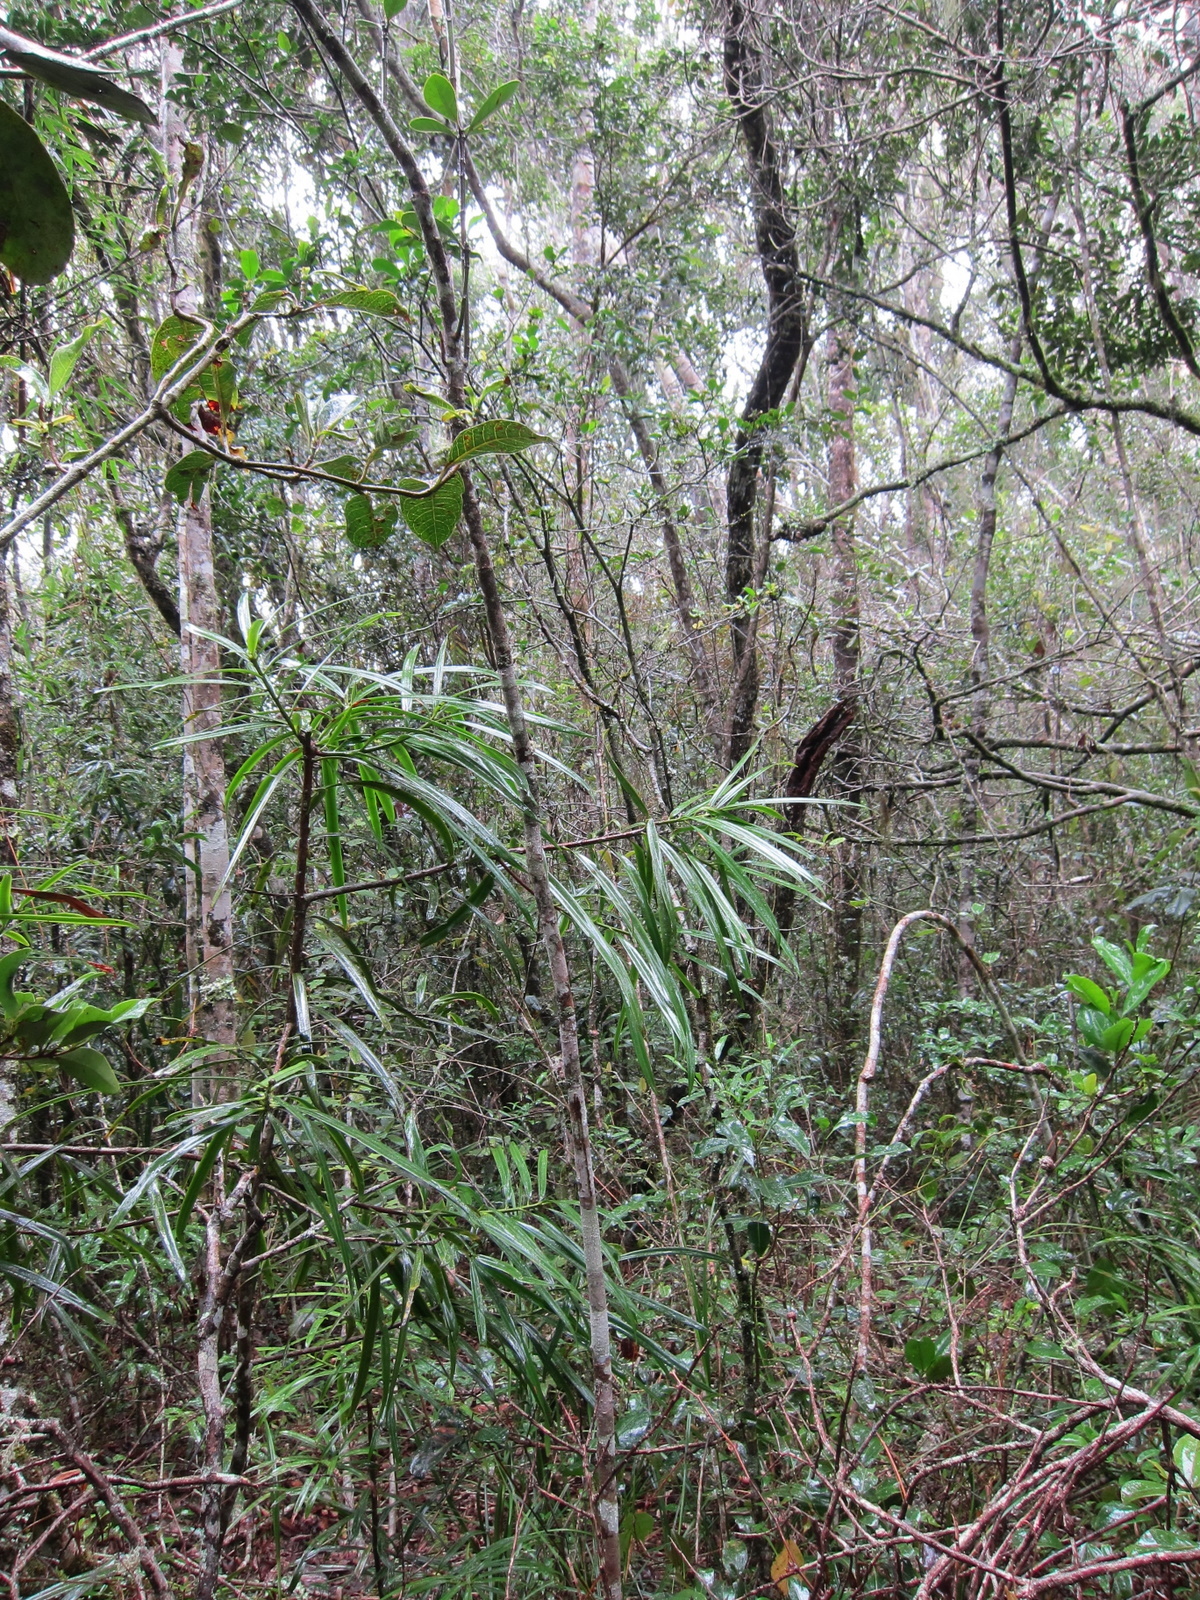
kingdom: Plantae
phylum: Tracheophyta
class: Pinopsida
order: Pinales
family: Podocarpaceae
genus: Podocarpus
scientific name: Podocarpus madagascariensis
